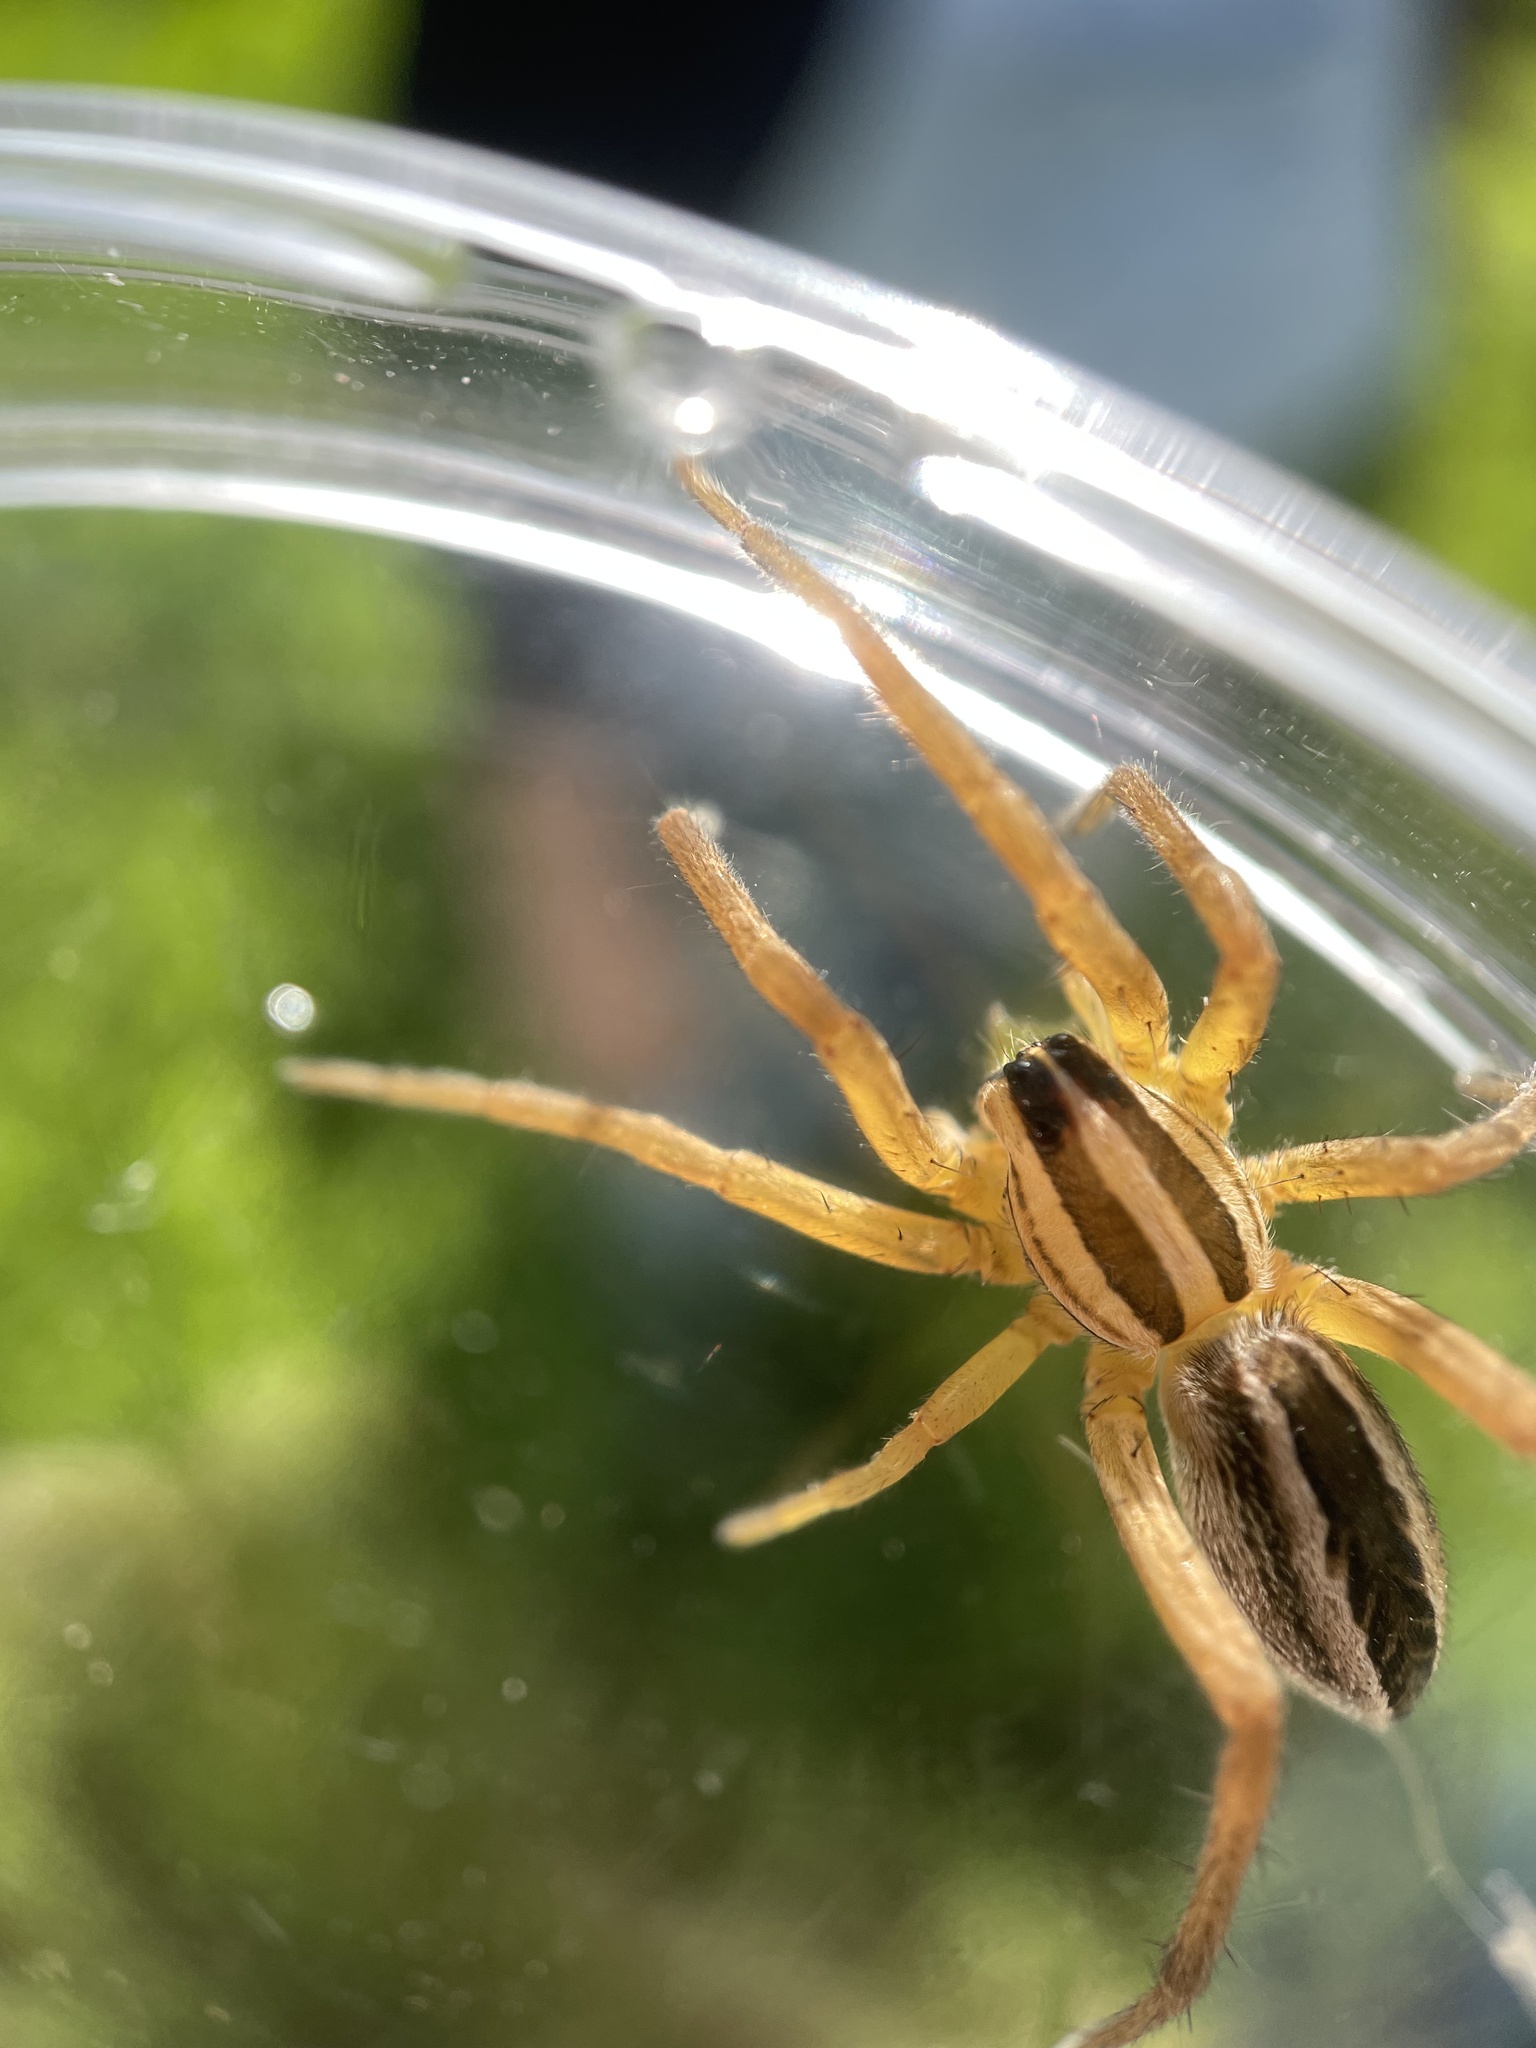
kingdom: Animalia
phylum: Arthropoda
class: Arachnida
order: Araneae
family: Lycosidae
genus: Rabidosa
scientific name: Rabidosa rabida
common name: Rabid wolf spider
